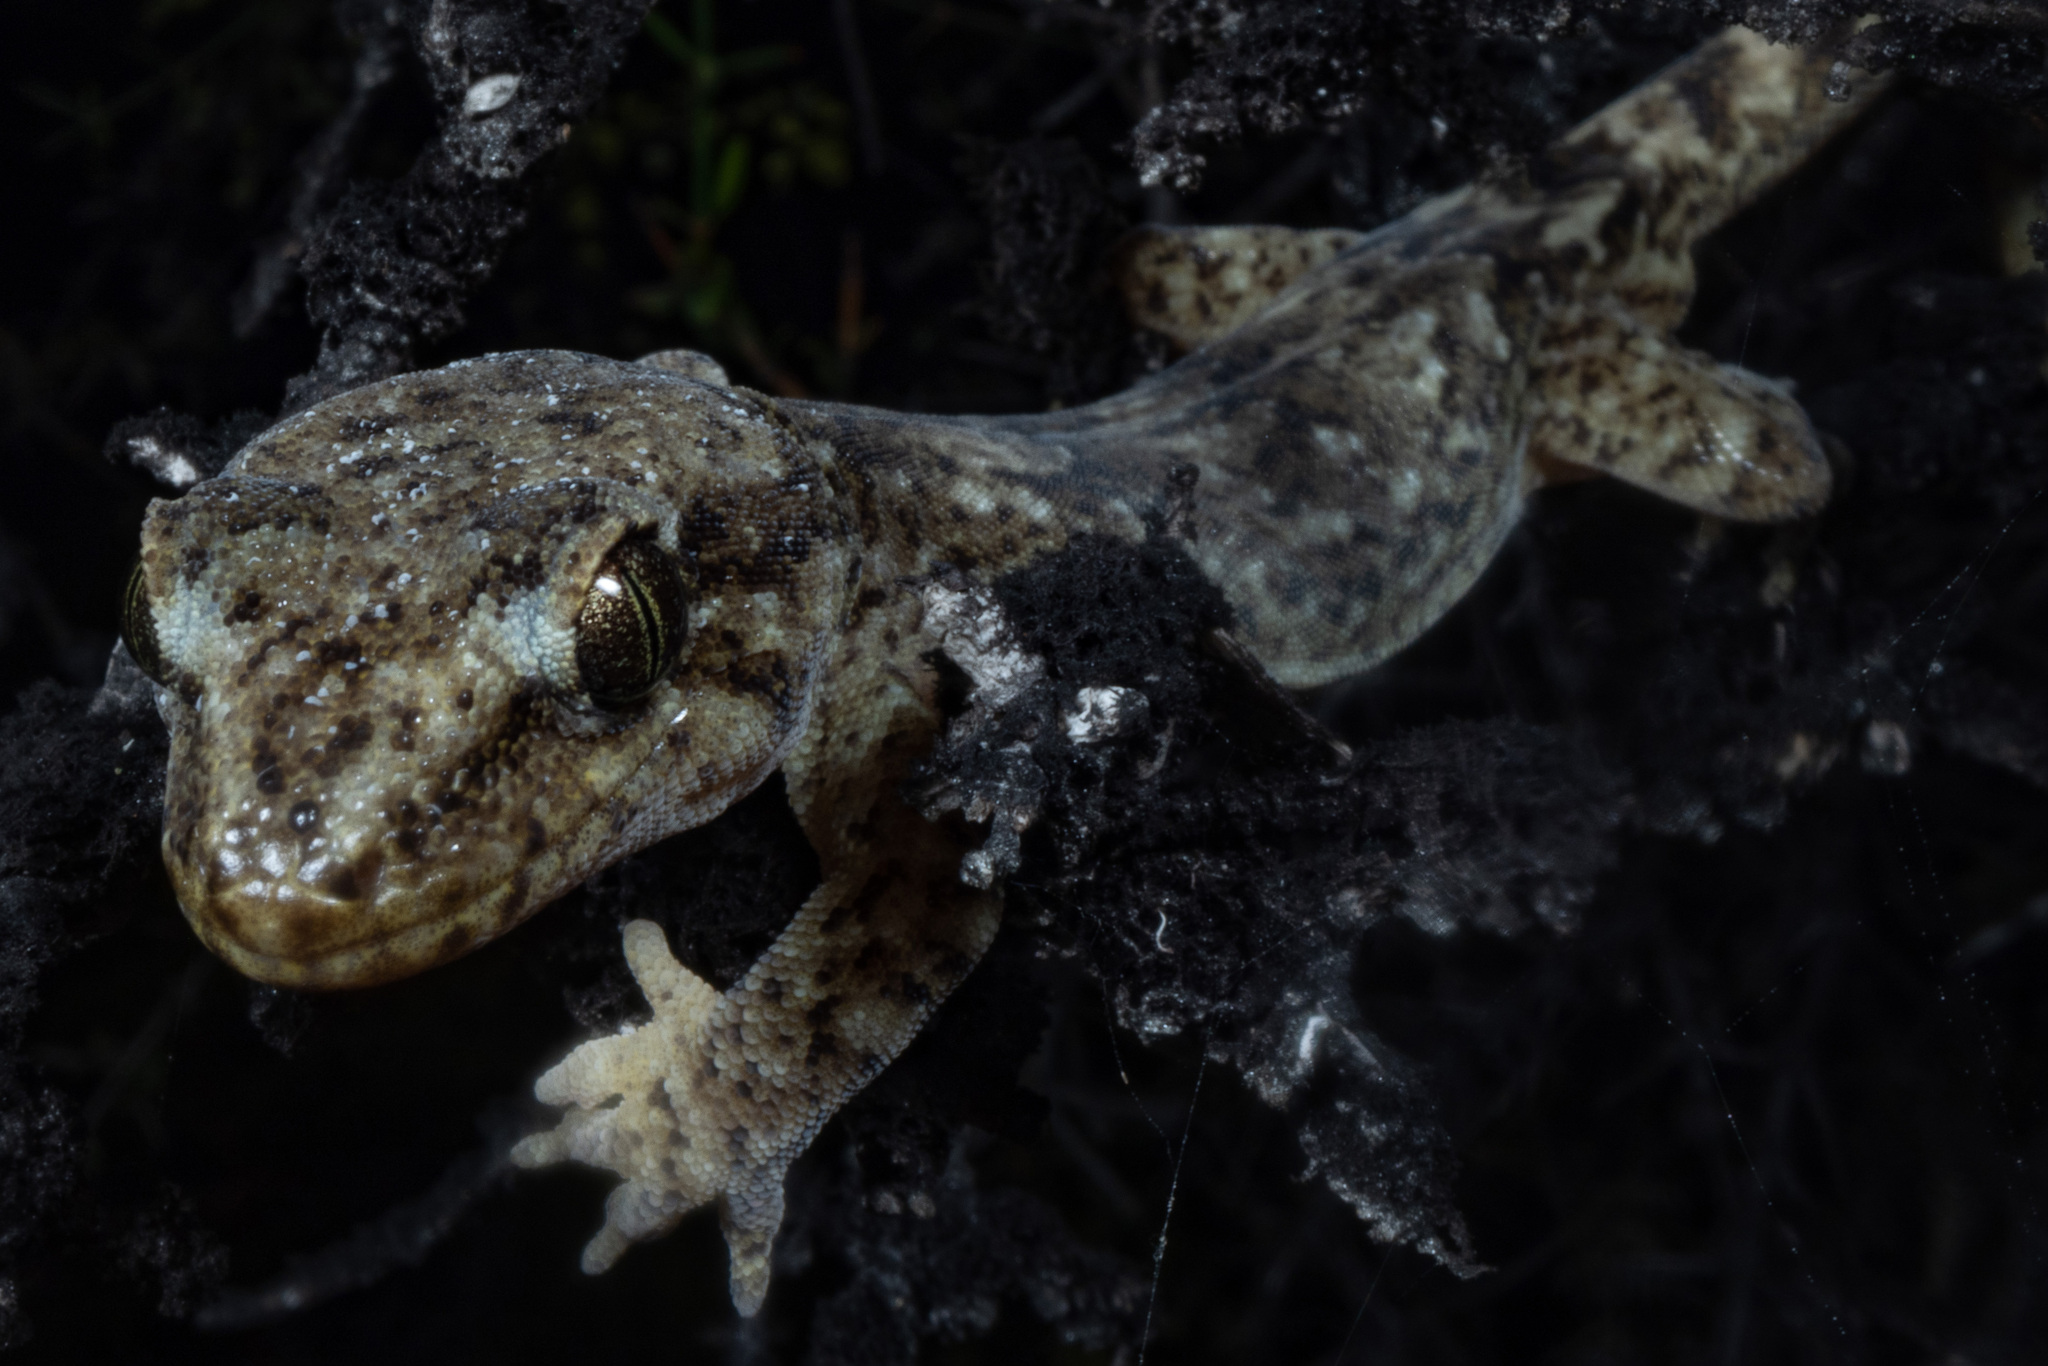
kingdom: Animalia
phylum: Chordata
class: Squamata
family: Diplodactylidae
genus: Woodworthia
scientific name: Woodworthia
